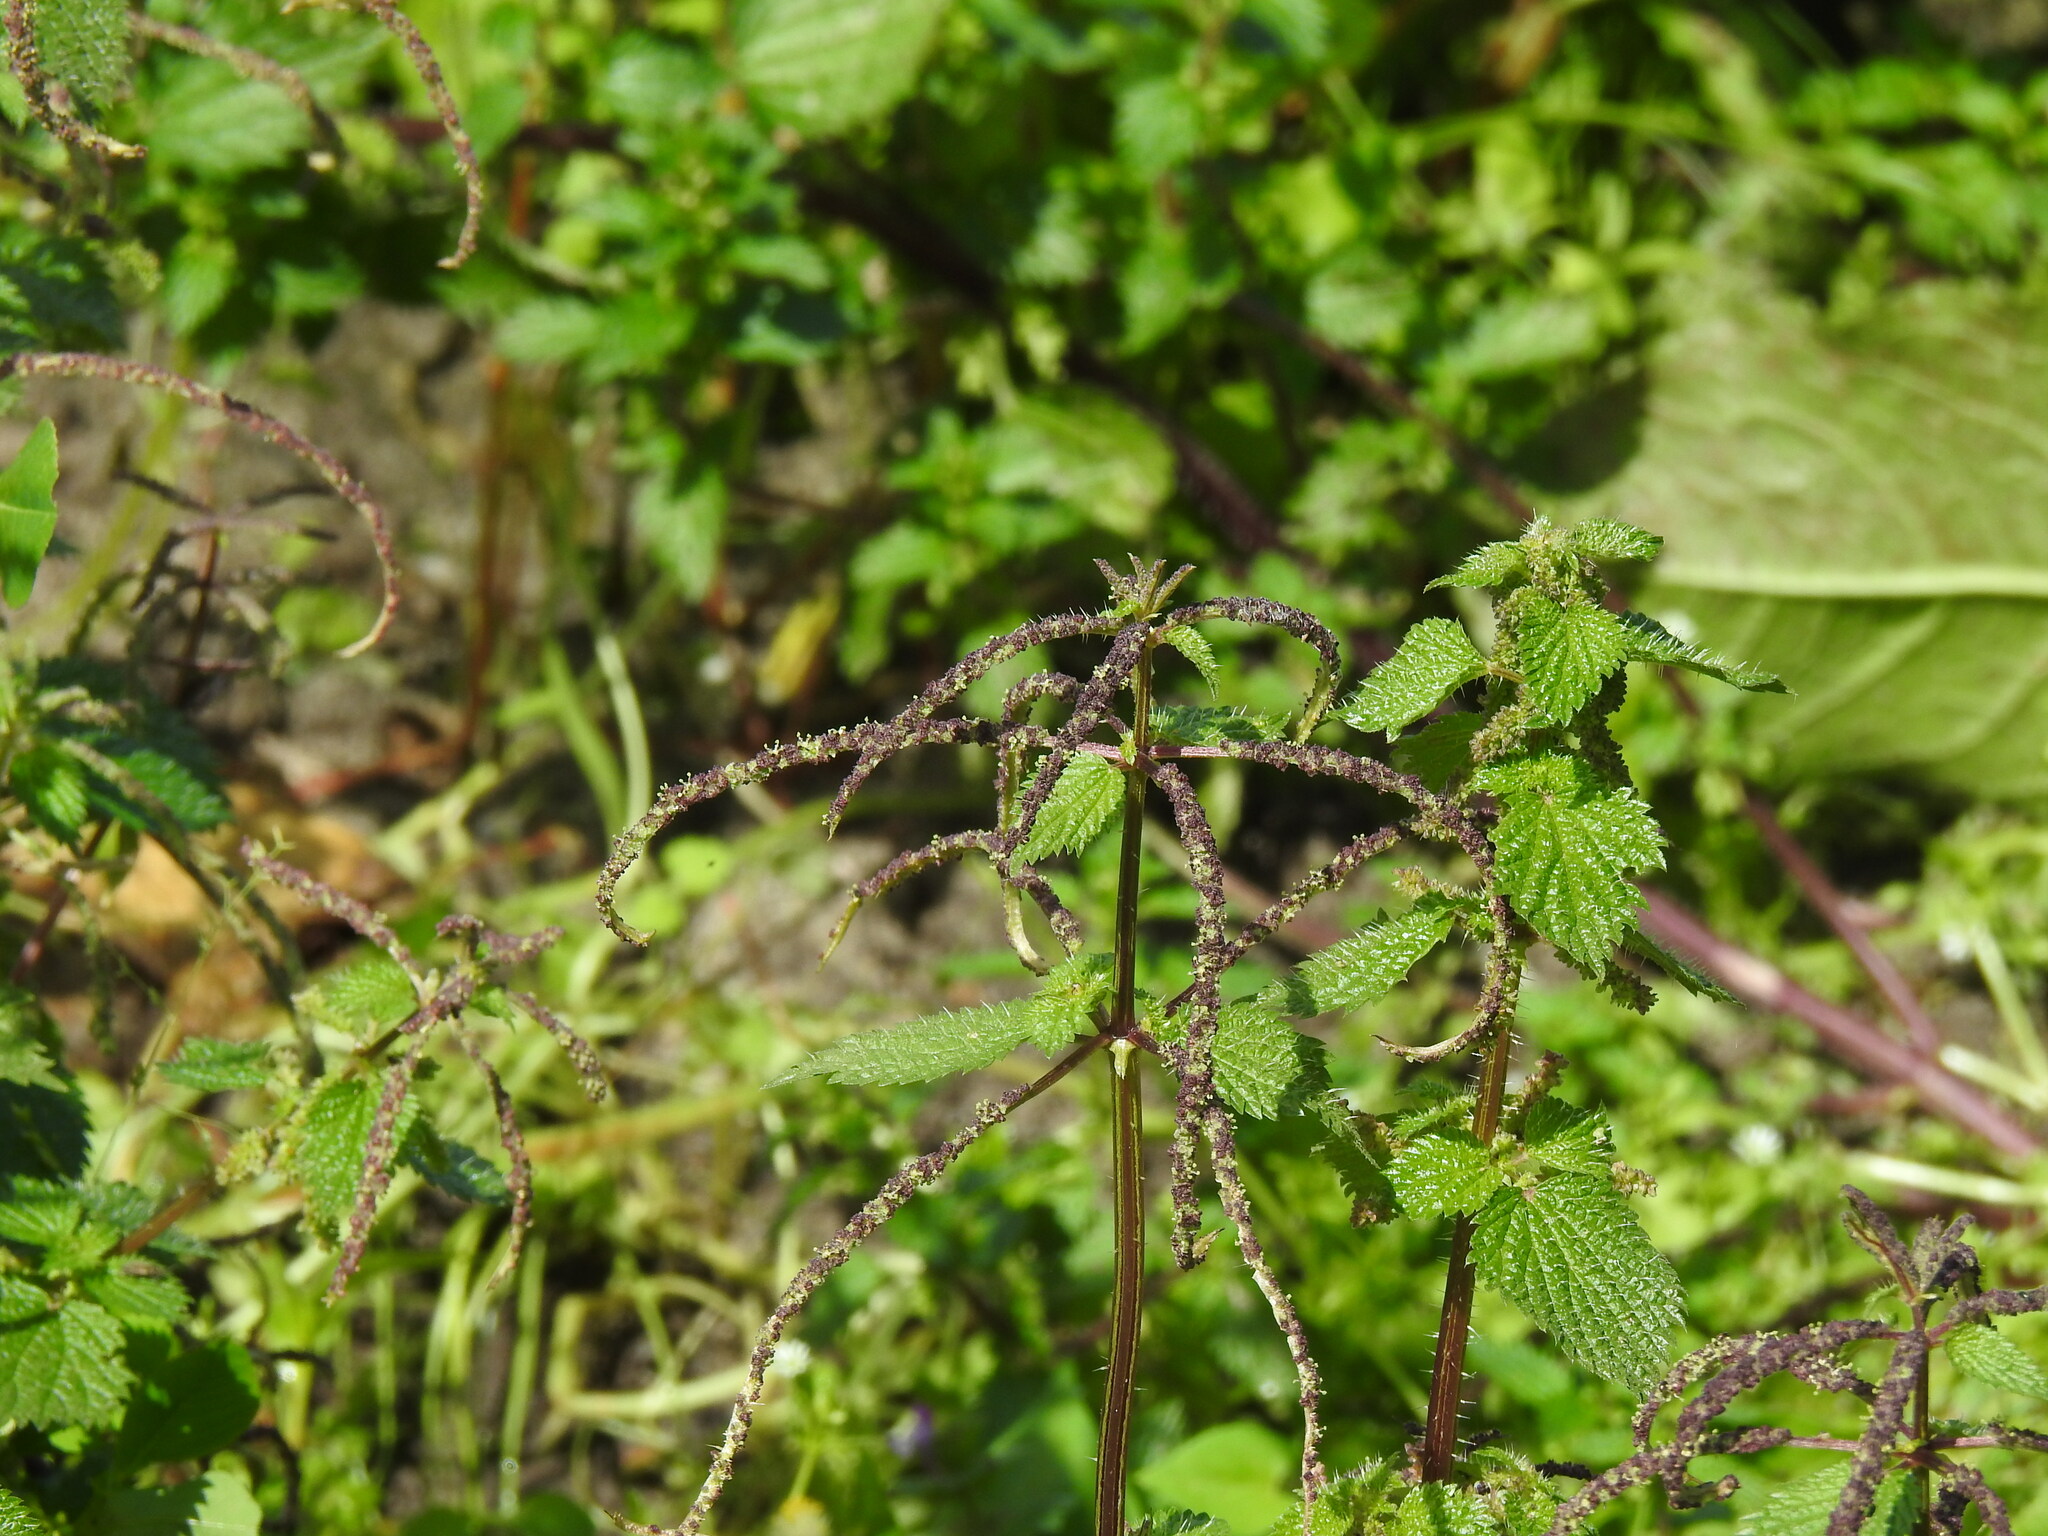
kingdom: Plantae
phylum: Tracheophyta
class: Magnoliopsida
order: Rosales
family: Urticaceae
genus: Urtica
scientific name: Urtica membranacea
